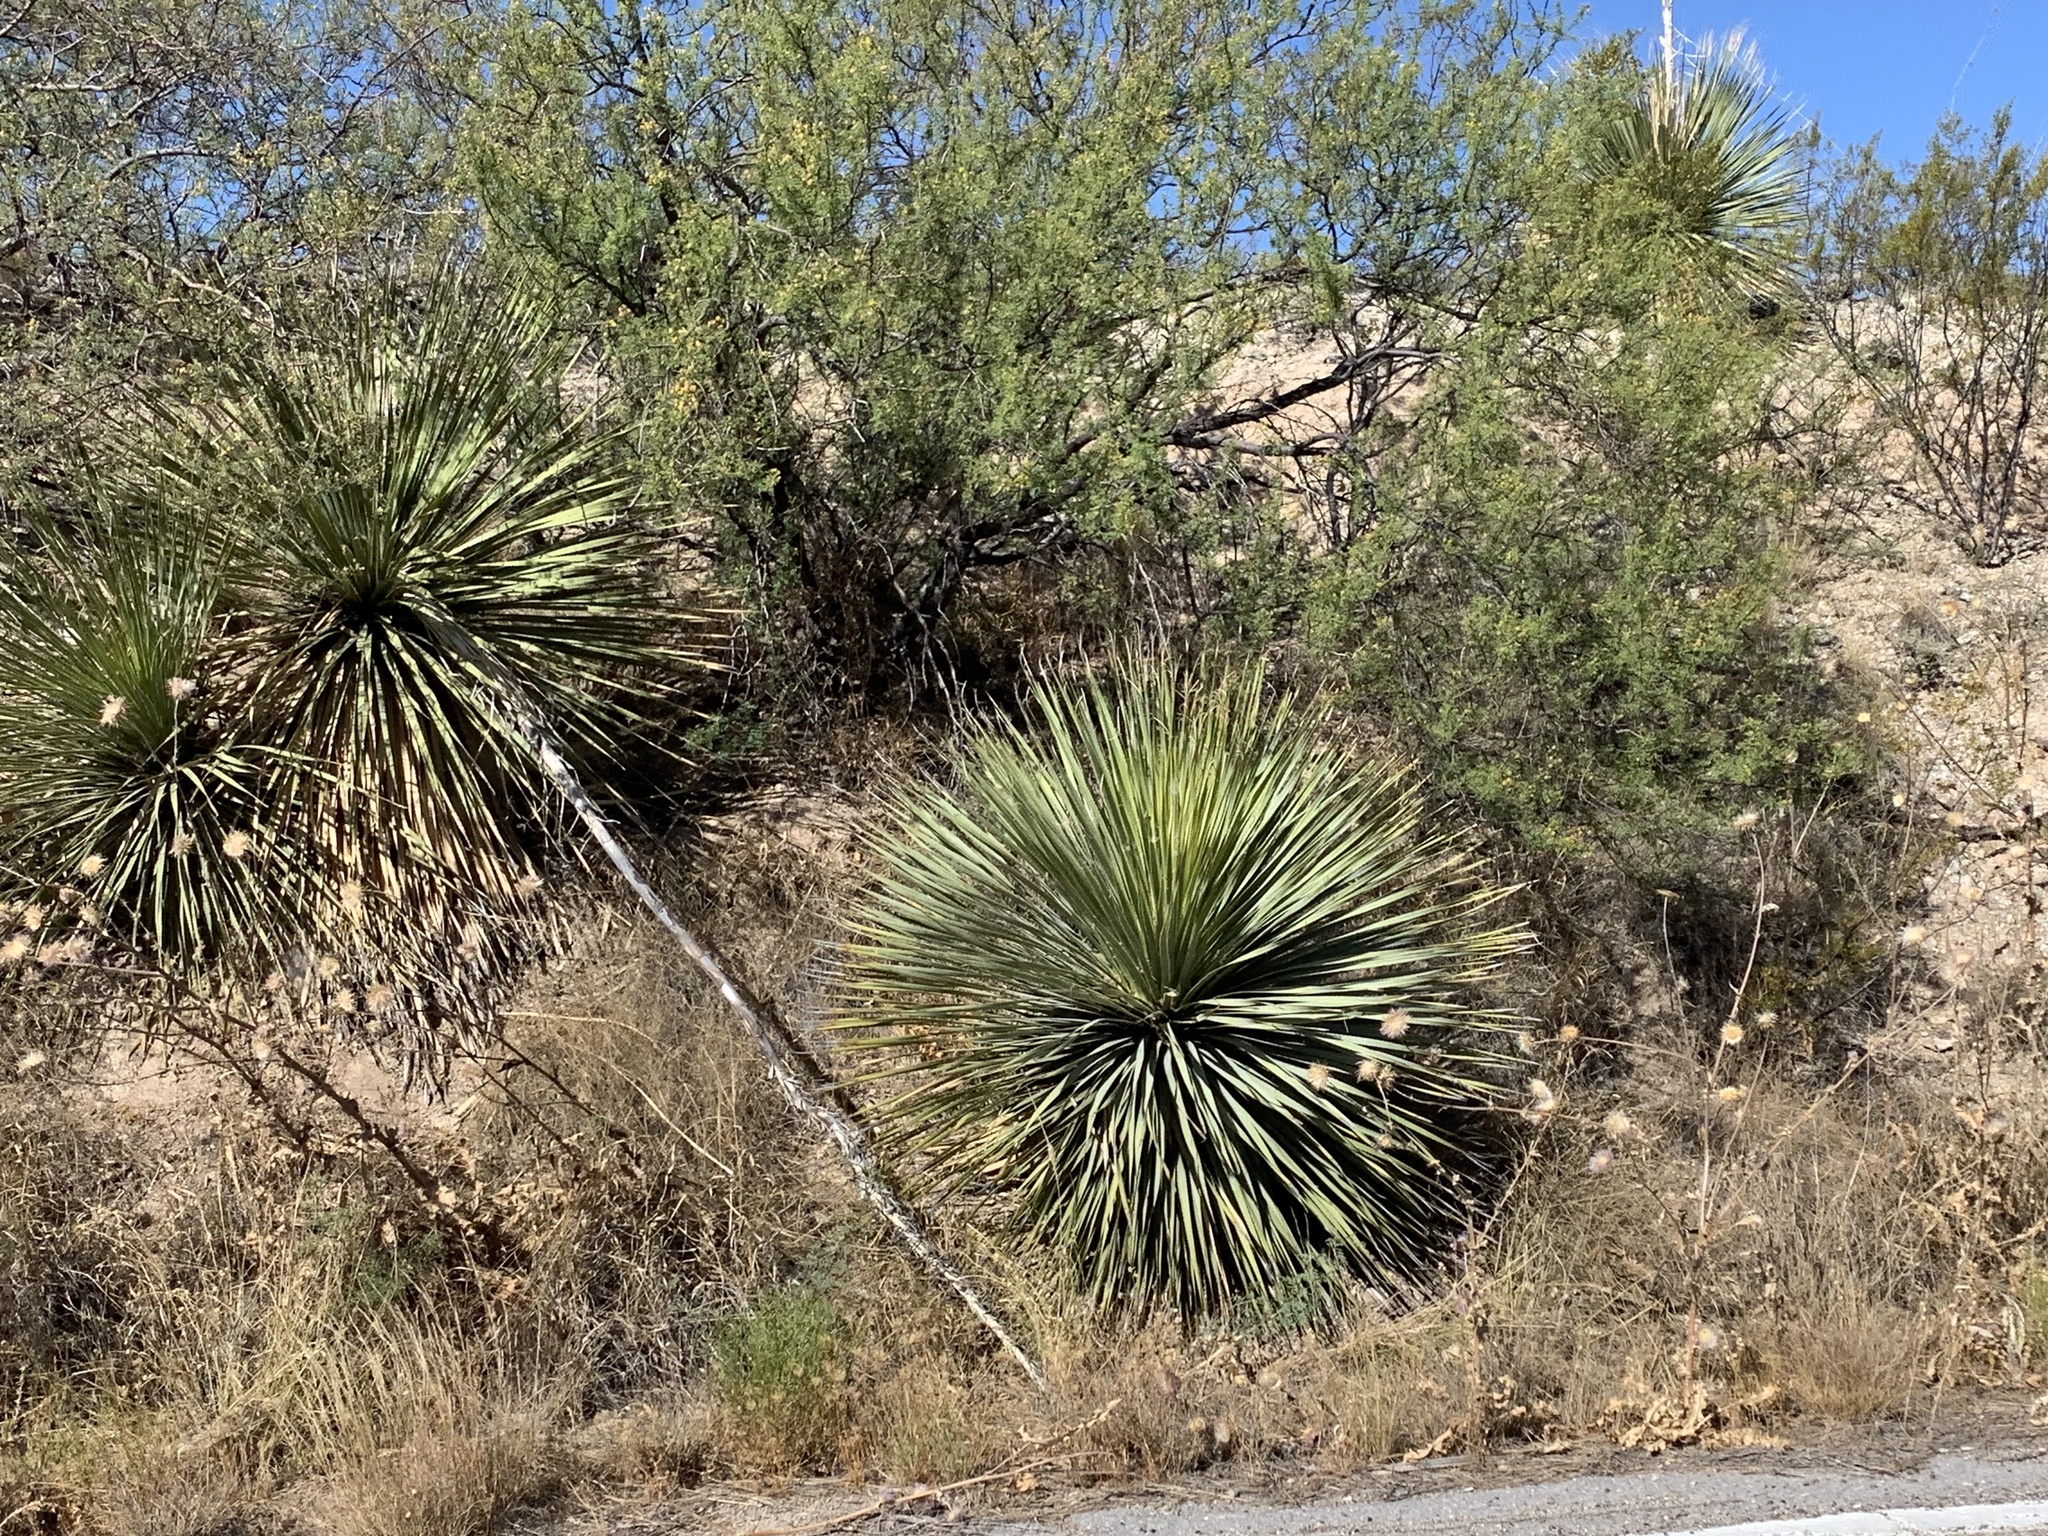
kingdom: Plantae
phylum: Tracheophyta
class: Liliopsida
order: Asparagales
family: Asparagaceae
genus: Dasylirion
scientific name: Dasylirion wheeleri
